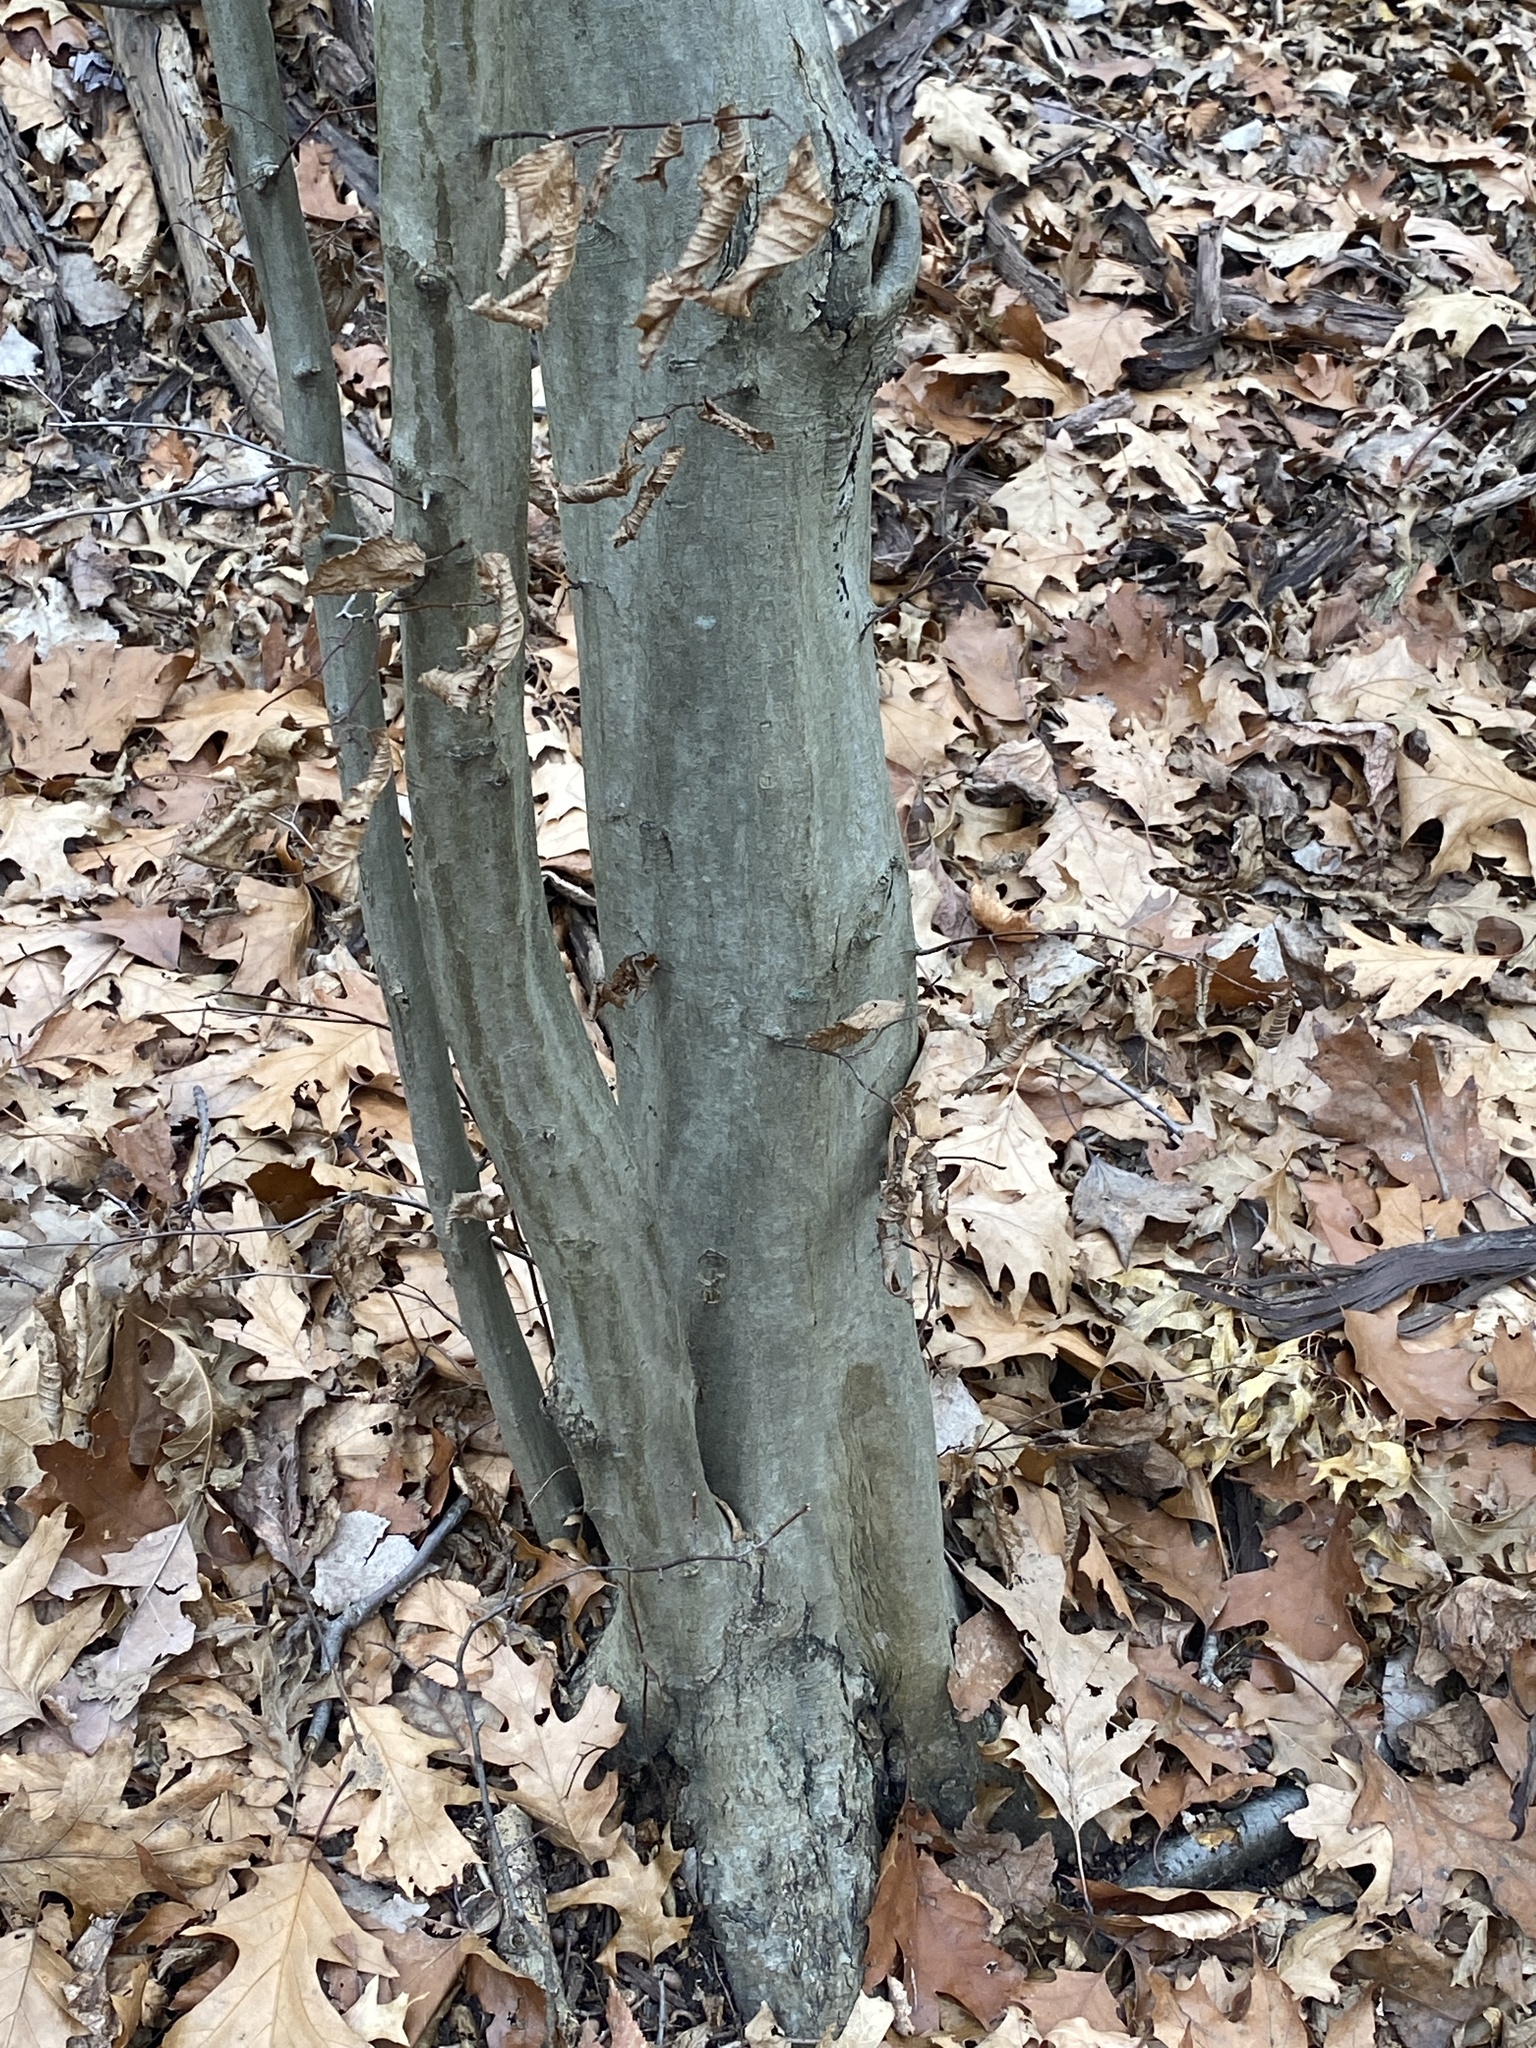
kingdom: Plantae
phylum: Tracheophyta
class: Magnoliopsida
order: Fagales
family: Betulaceae
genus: Carpinus
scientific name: Carpinus caroliniana
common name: American hornbeam
